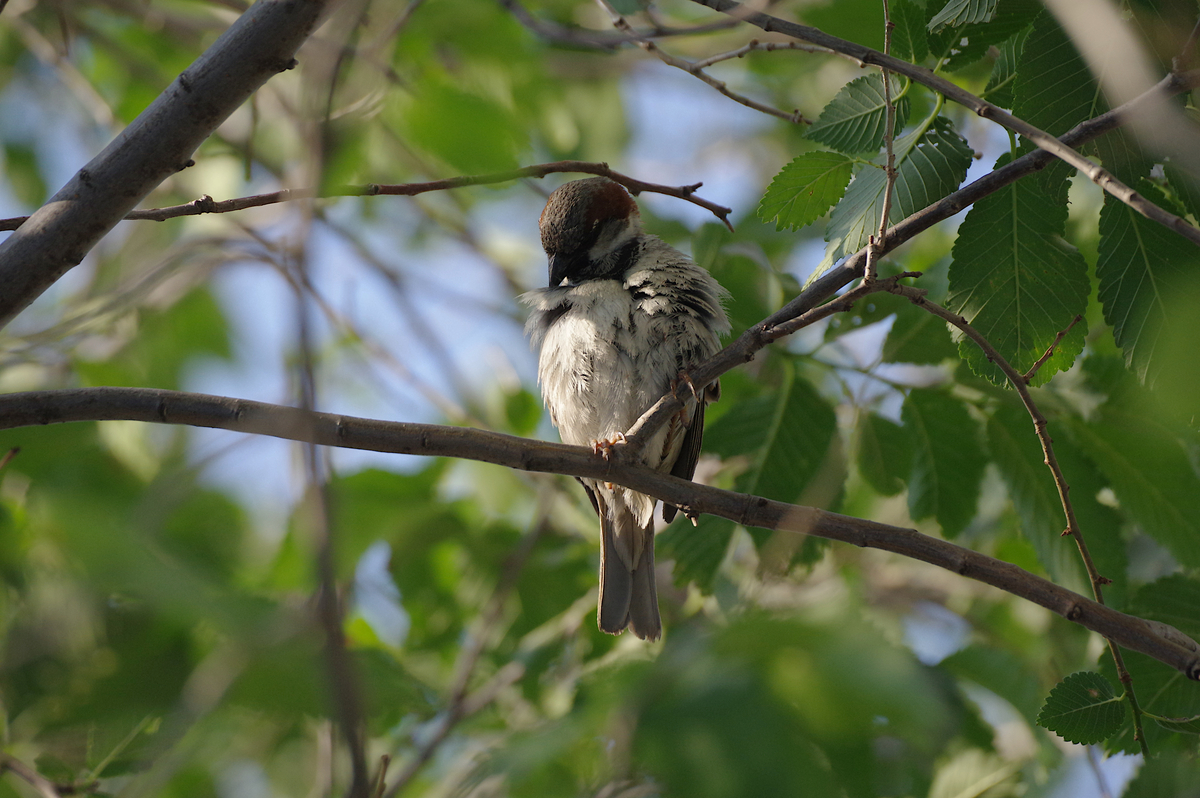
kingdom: Animalia
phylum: Chordata
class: Aves
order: Passeriformes
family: Passeridae
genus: Passer
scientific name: Passer domesticus
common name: House sparrow
